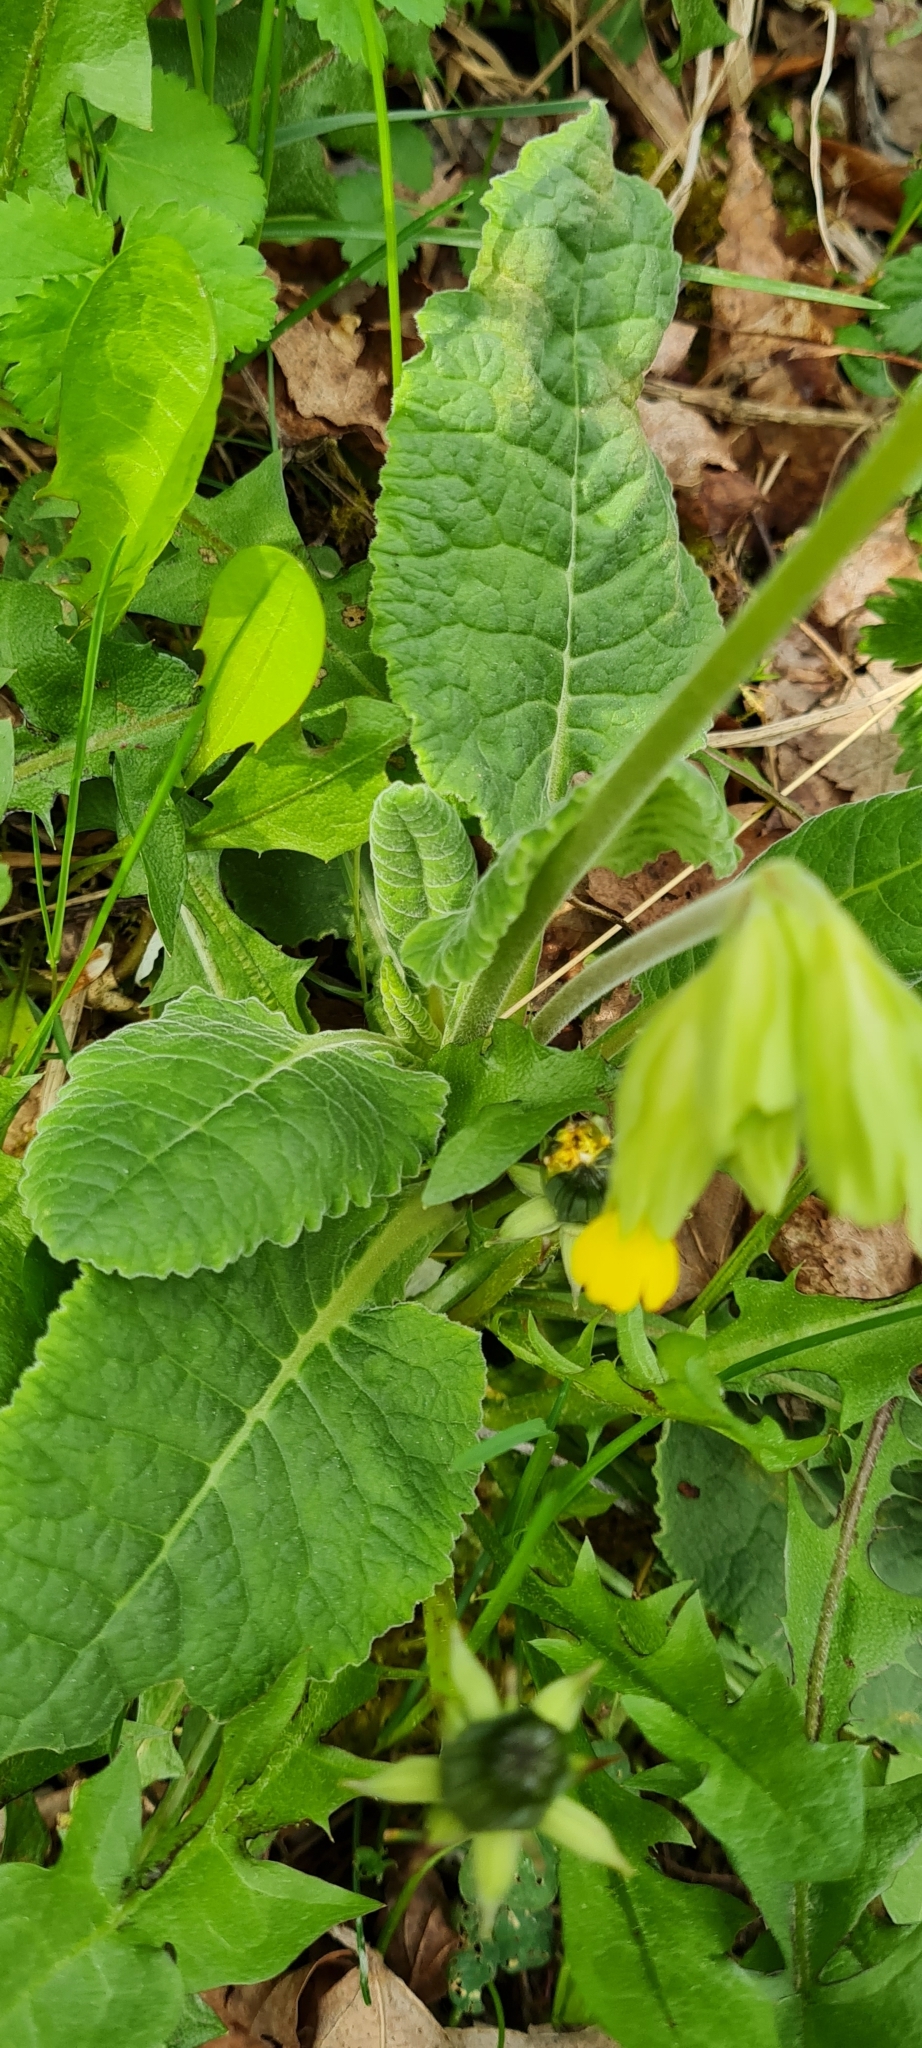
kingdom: Plantae
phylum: Tracheophyta
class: Magnoliopsida
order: Ericales
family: Primulaceae
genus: Primula
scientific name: Primula veris
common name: Cowslip
